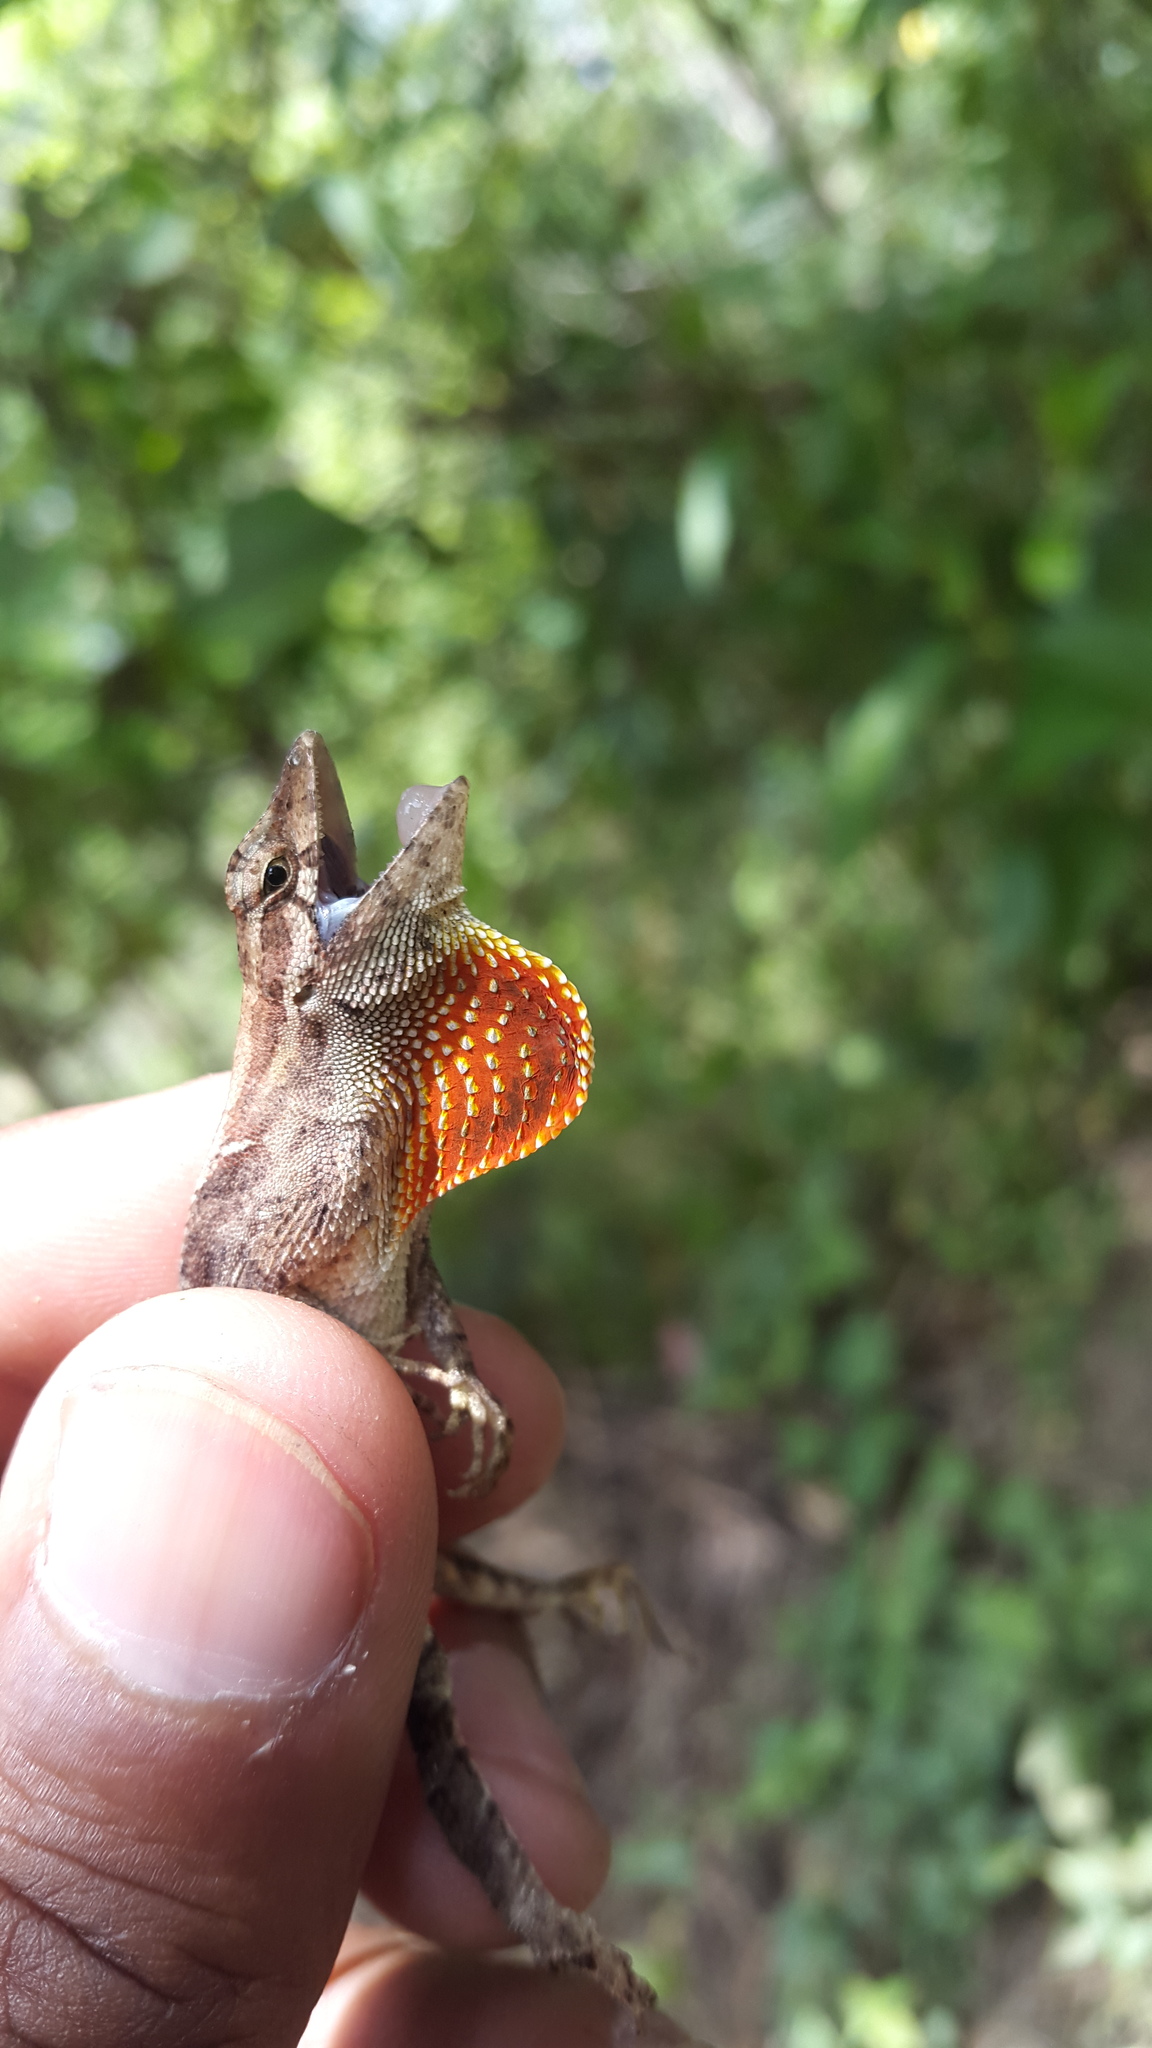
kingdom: Animalia
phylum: Chordata
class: Squamata
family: Dactyloidae
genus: Anolis
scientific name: Anolis mccraniei
